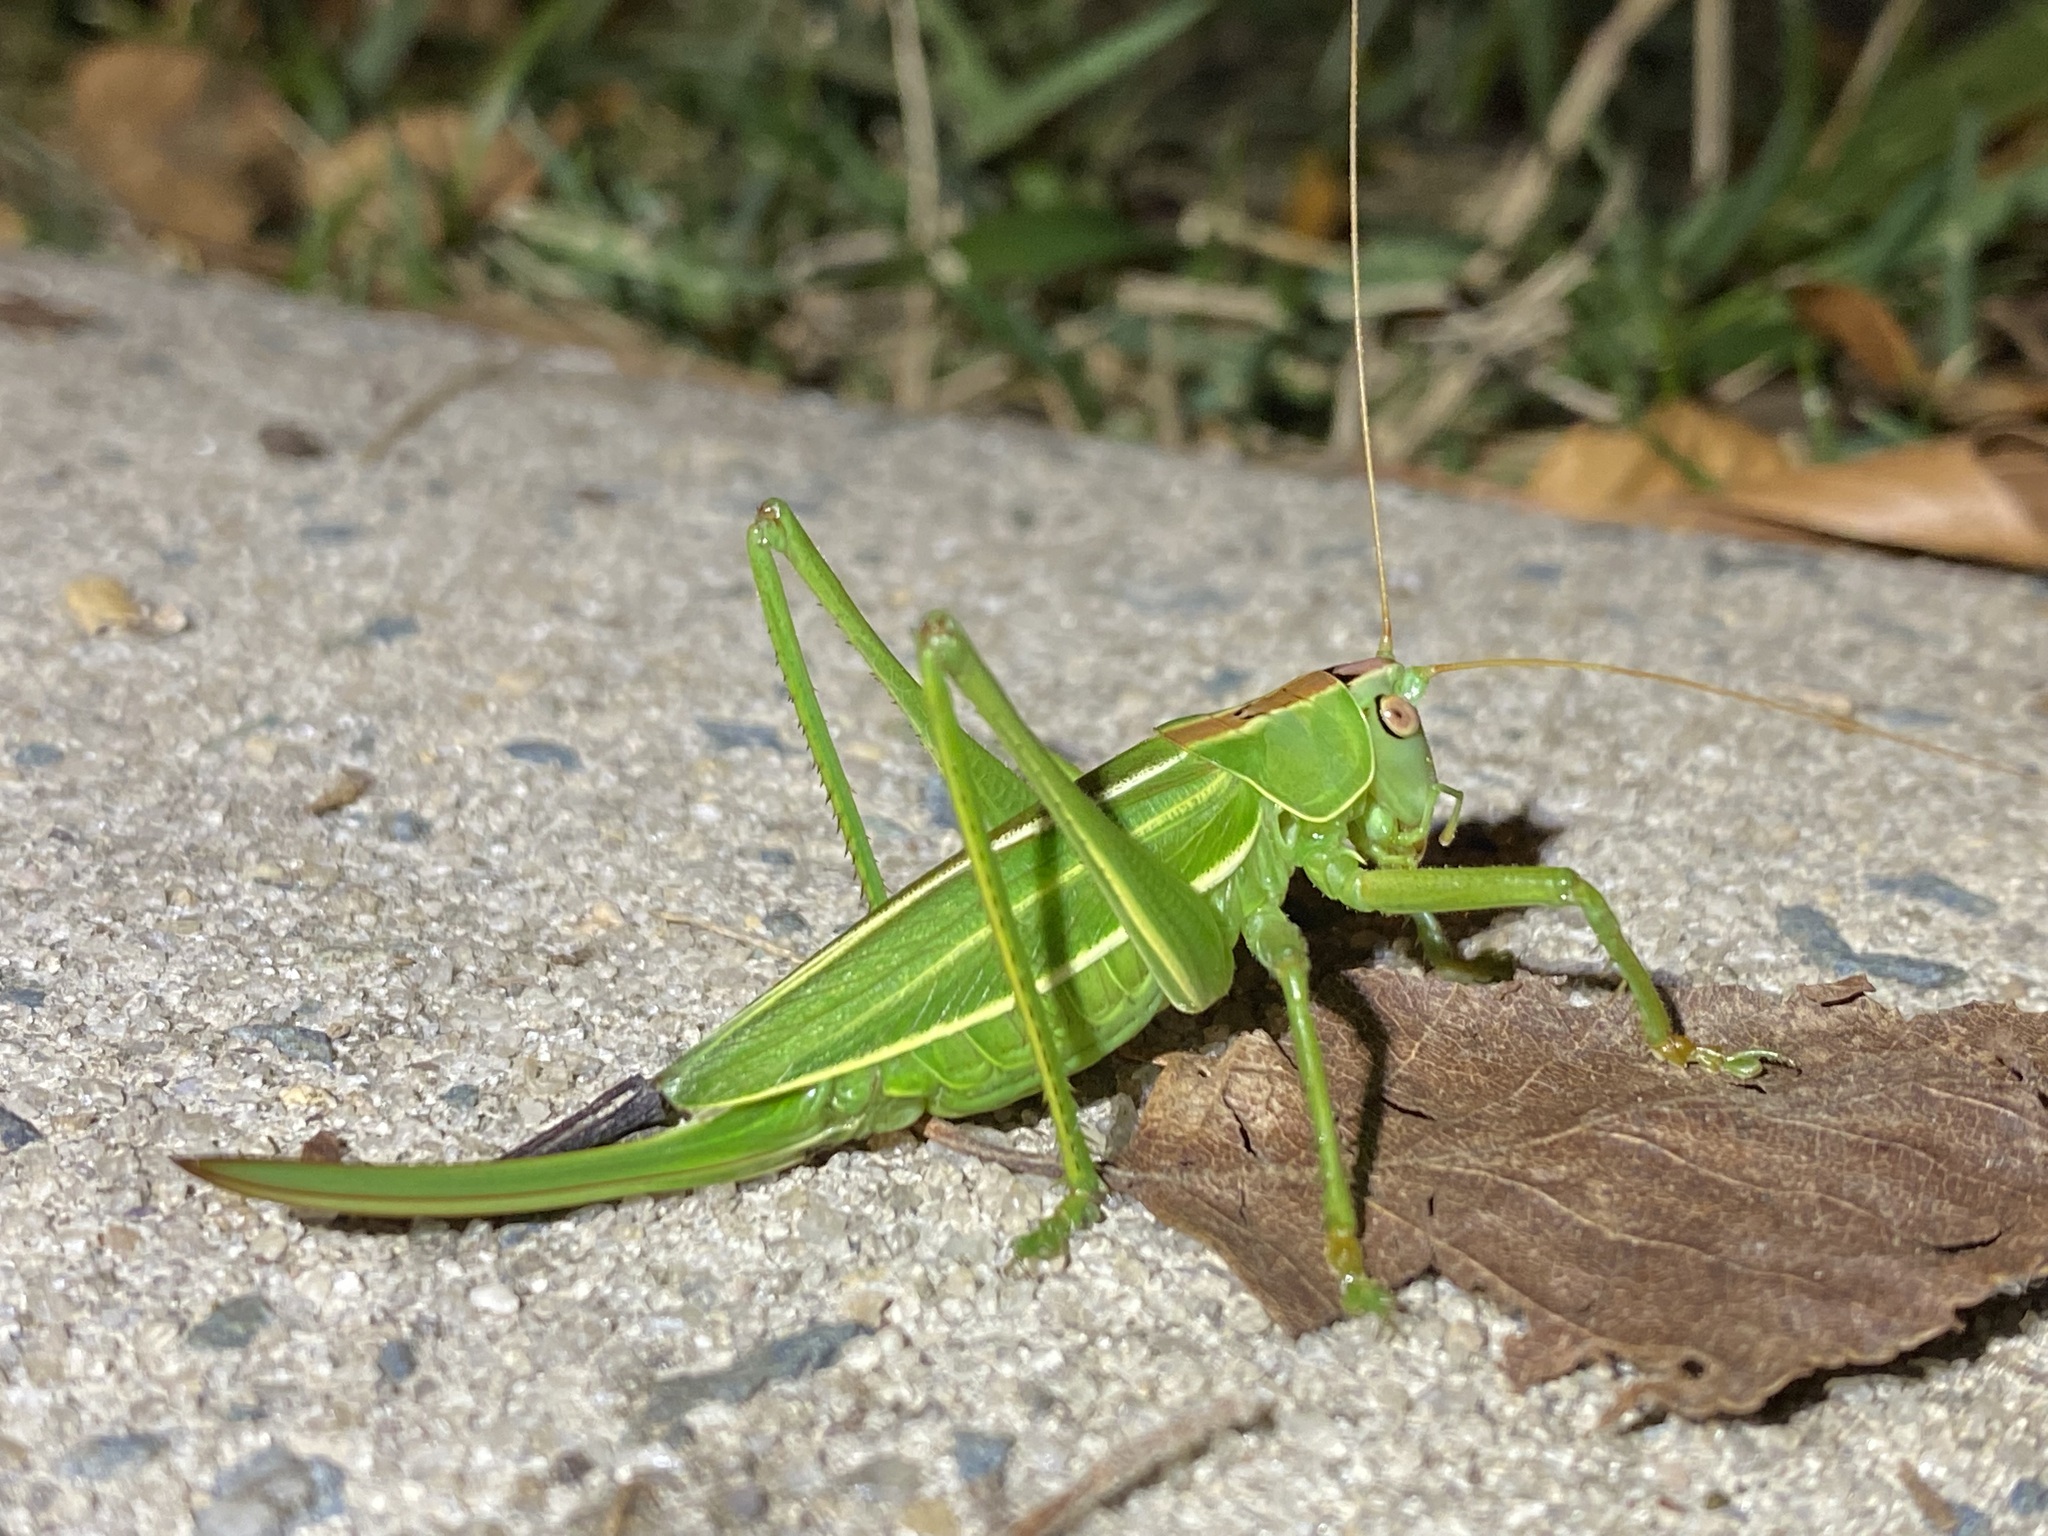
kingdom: Animalia
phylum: Arthropoda
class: Insecta
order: Orthoptera
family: Tettigoniidae
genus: Hubbellia
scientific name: Hubbellia marginifera
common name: Pine katydid
